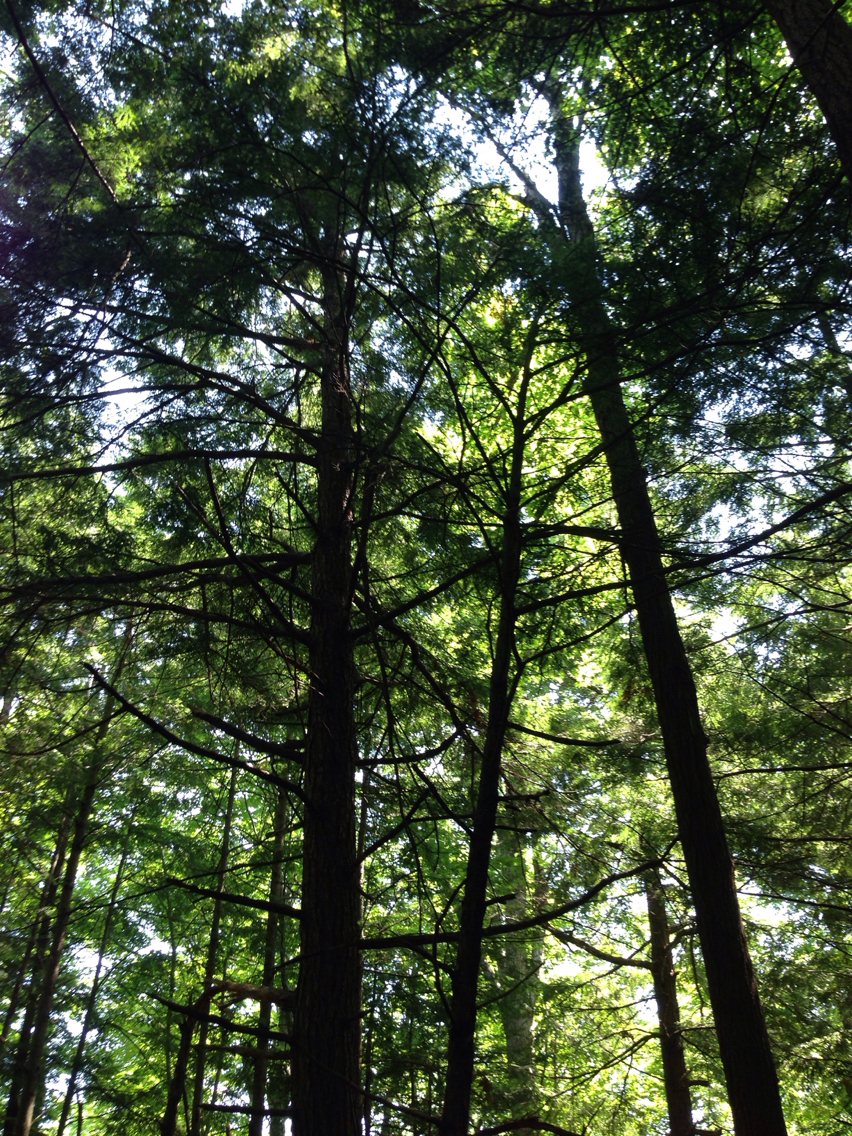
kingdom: Plantae
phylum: Tracheophyta
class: Pinopsida
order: Pinales
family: Pinaceae
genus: Tsuga
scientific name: Tsuga canadensis
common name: Eastern hemlock
